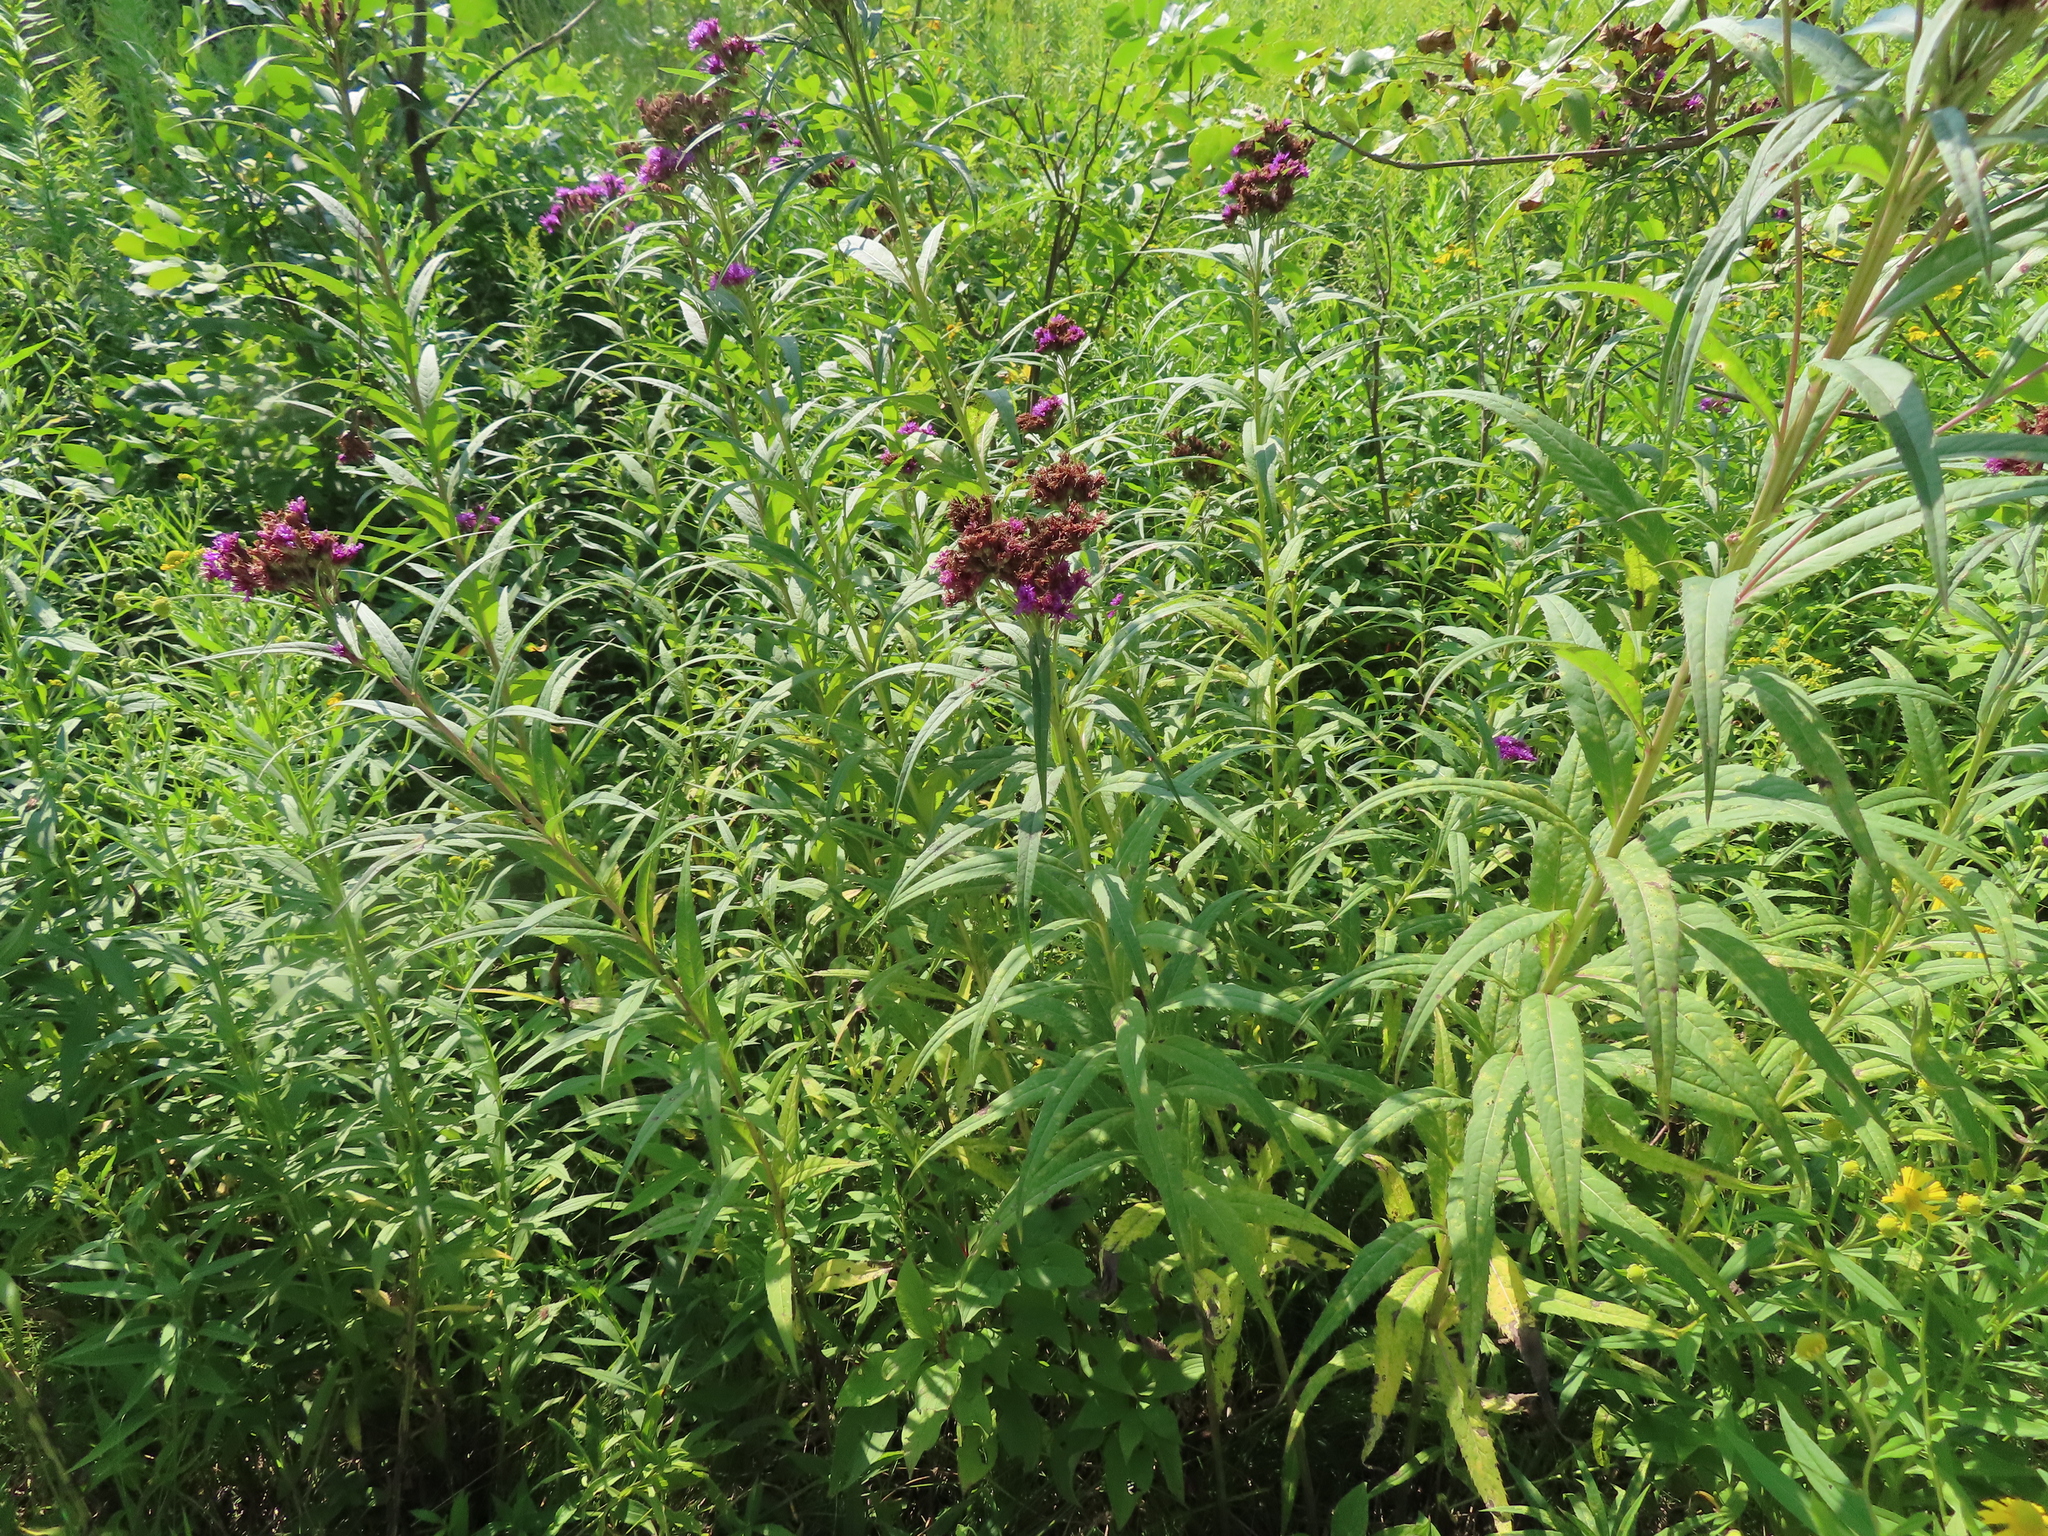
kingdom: Plantae
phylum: Tracheophyta
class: Magnoliopsida
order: Asterales
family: Asteraceae
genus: Vernonia
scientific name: Vernonia fasciculata
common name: Fascicled ironweed
